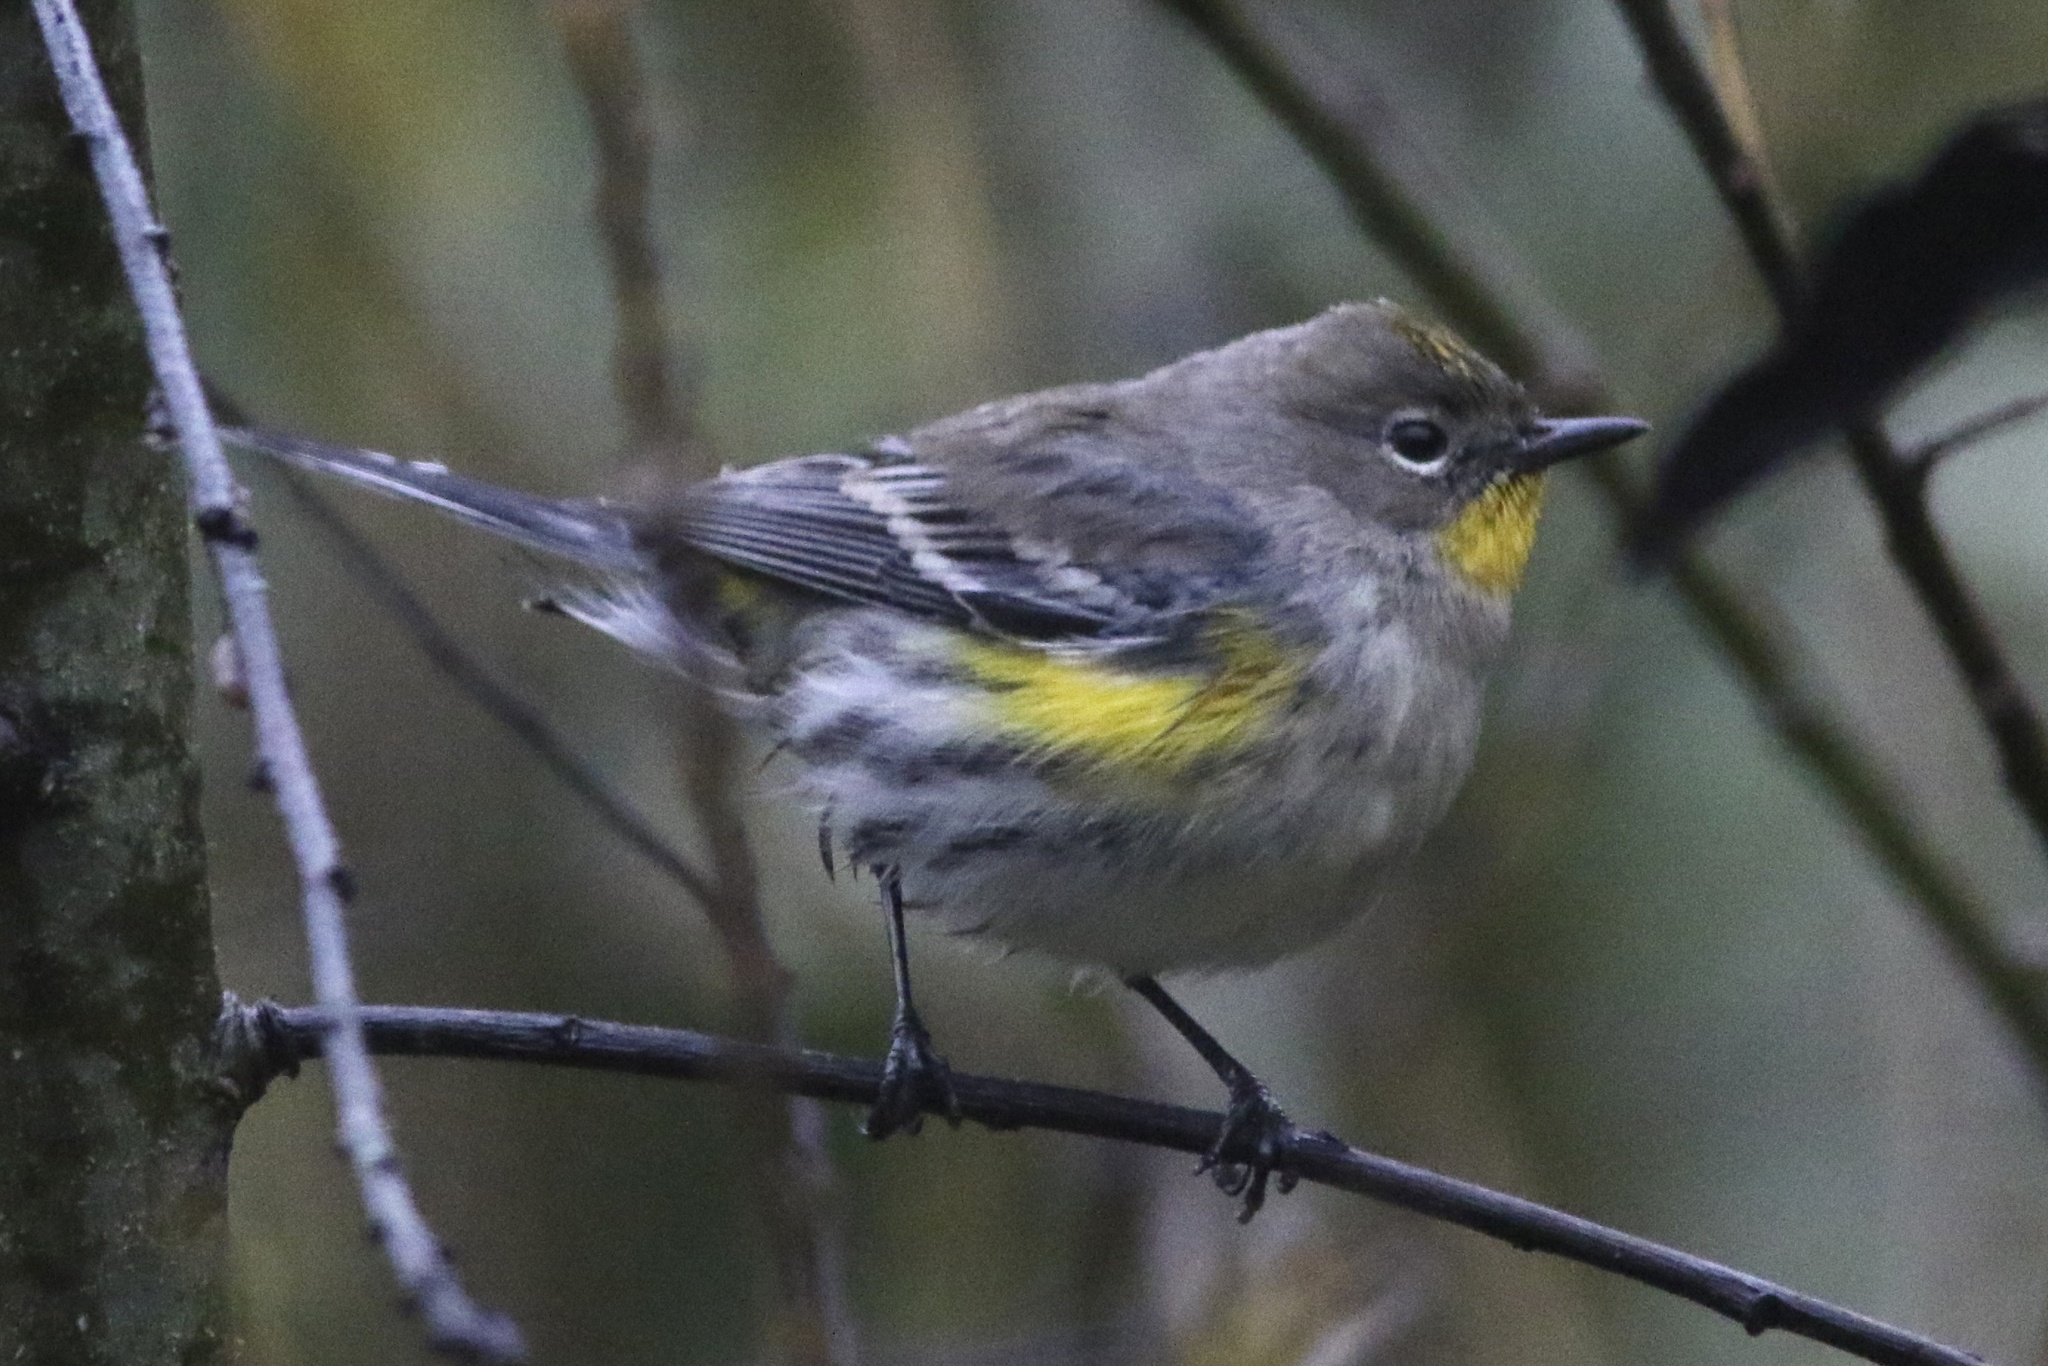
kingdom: Animalia
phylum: Chordata
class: Aves
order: Passeriformes
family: Parulidae
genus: Setophaga
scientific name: Setophaga coronata
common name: Myrtle warbler
